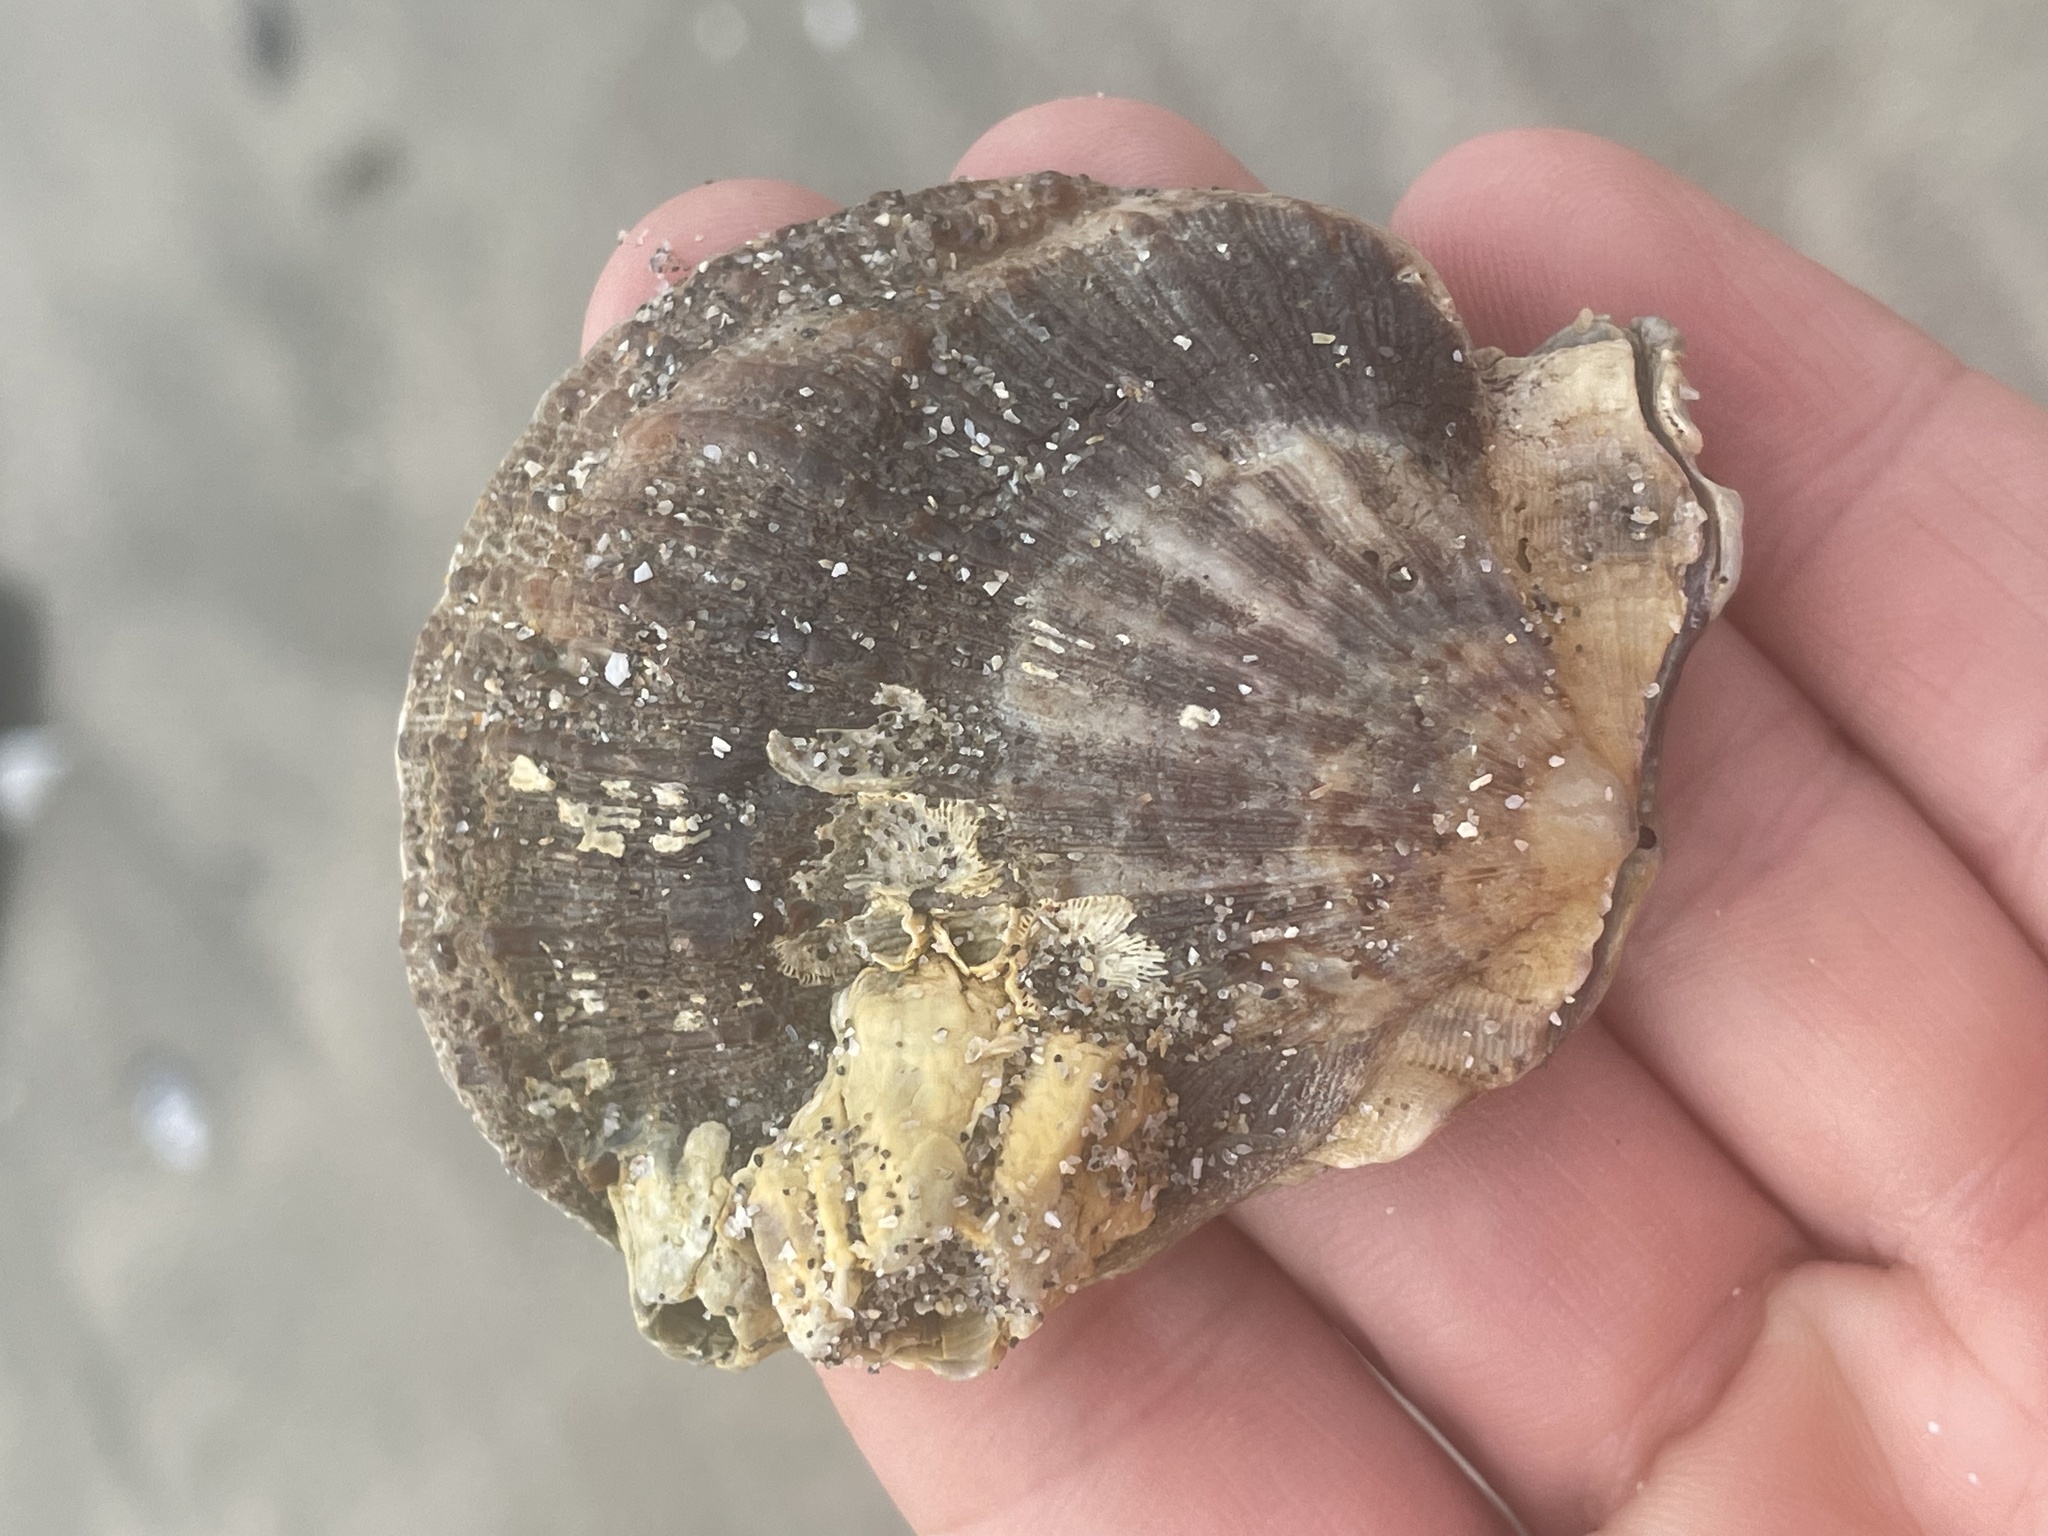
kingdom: Animalia
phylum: Mollusca
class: Bivalvia
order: Pectinida
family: Pectinidae
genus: Crassadoma
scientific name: Crassadoma gigantea
